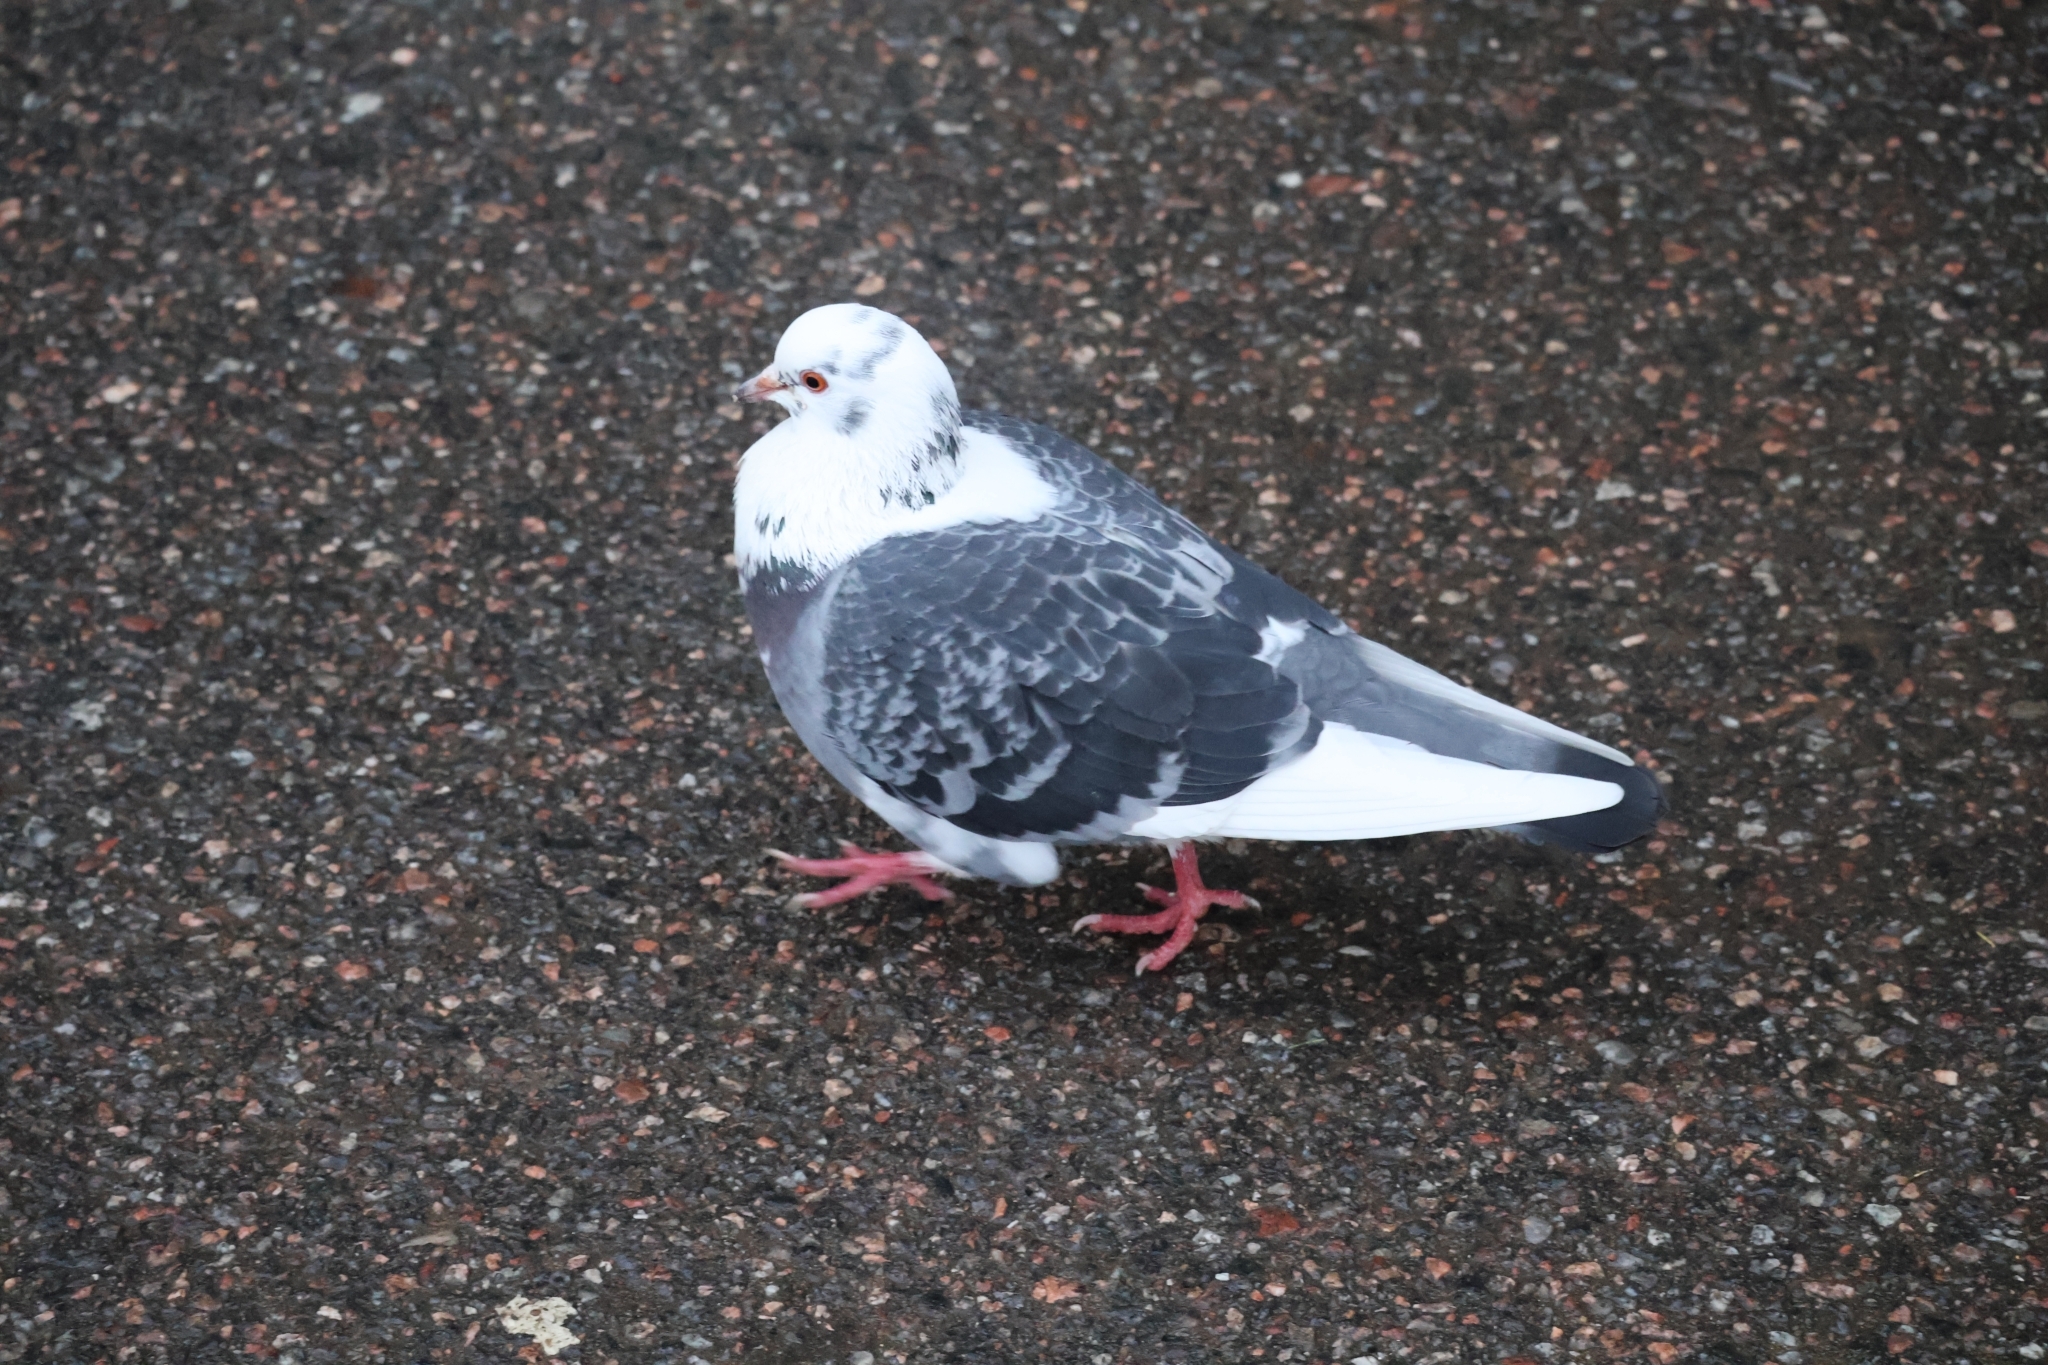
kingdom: Animalia
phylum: Chordata
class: Aves
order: Columbiformes
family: Columbidae
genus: Columba
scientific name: Columba livia
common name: Rock pigeon
